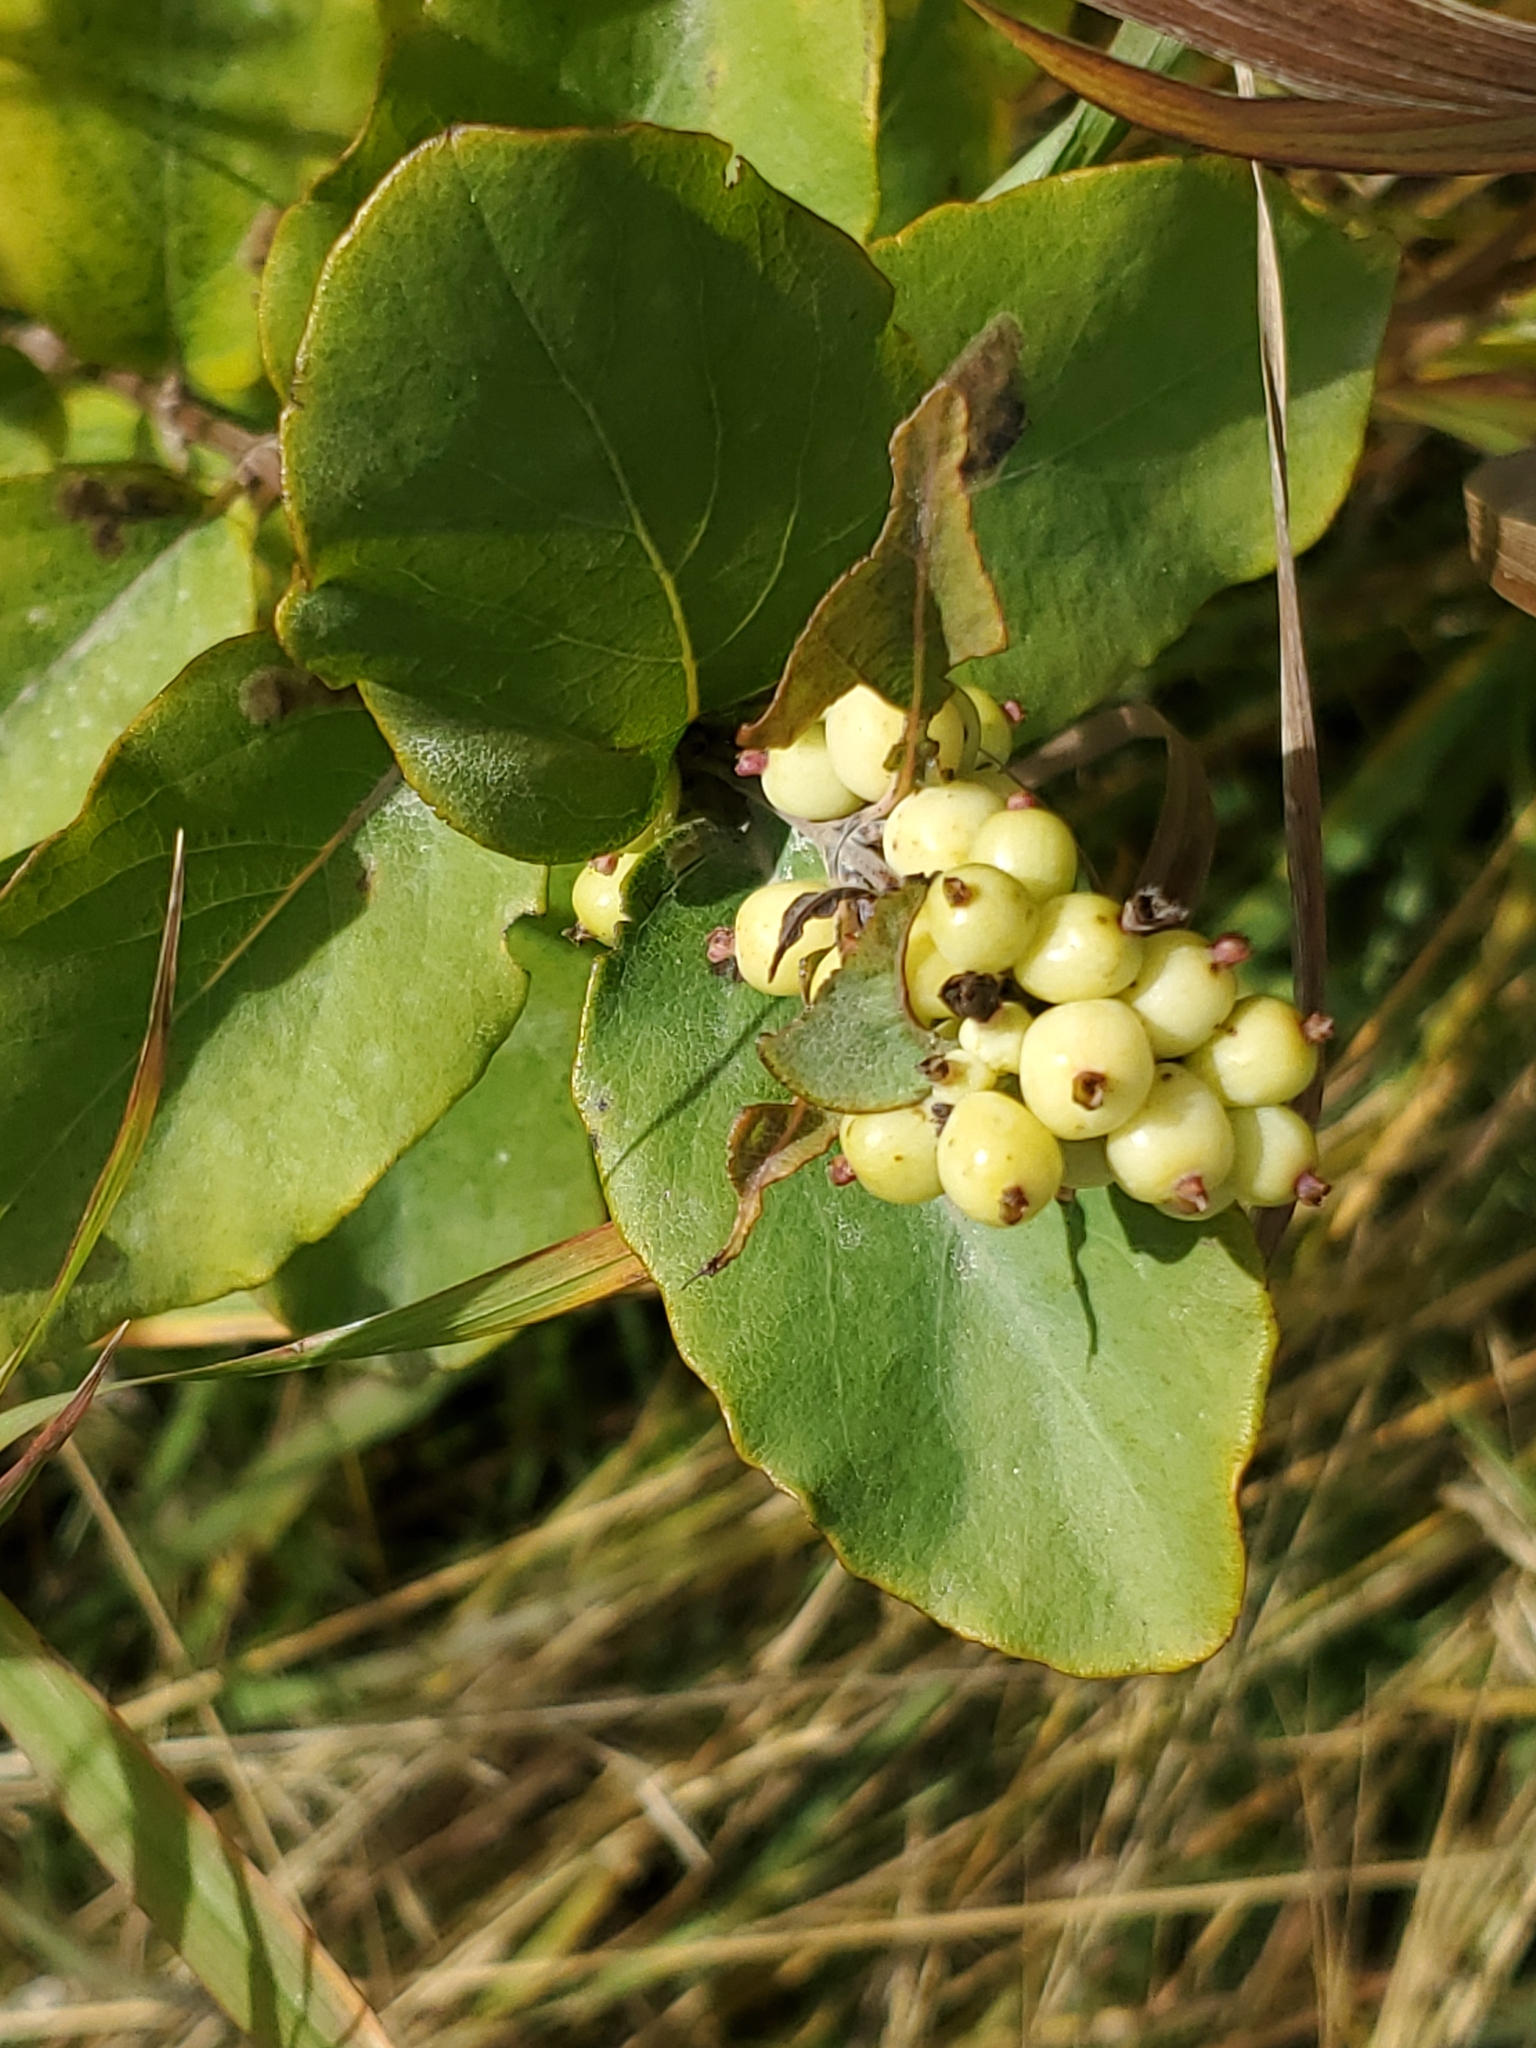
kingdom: Plantae
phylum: Tracheophyta
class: Magnoliopsida
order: Dipsacales
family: Caprifoliaceae
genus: Symphoricarpos
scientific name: Symphoricarpos occidentalis
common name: Wolfberry
